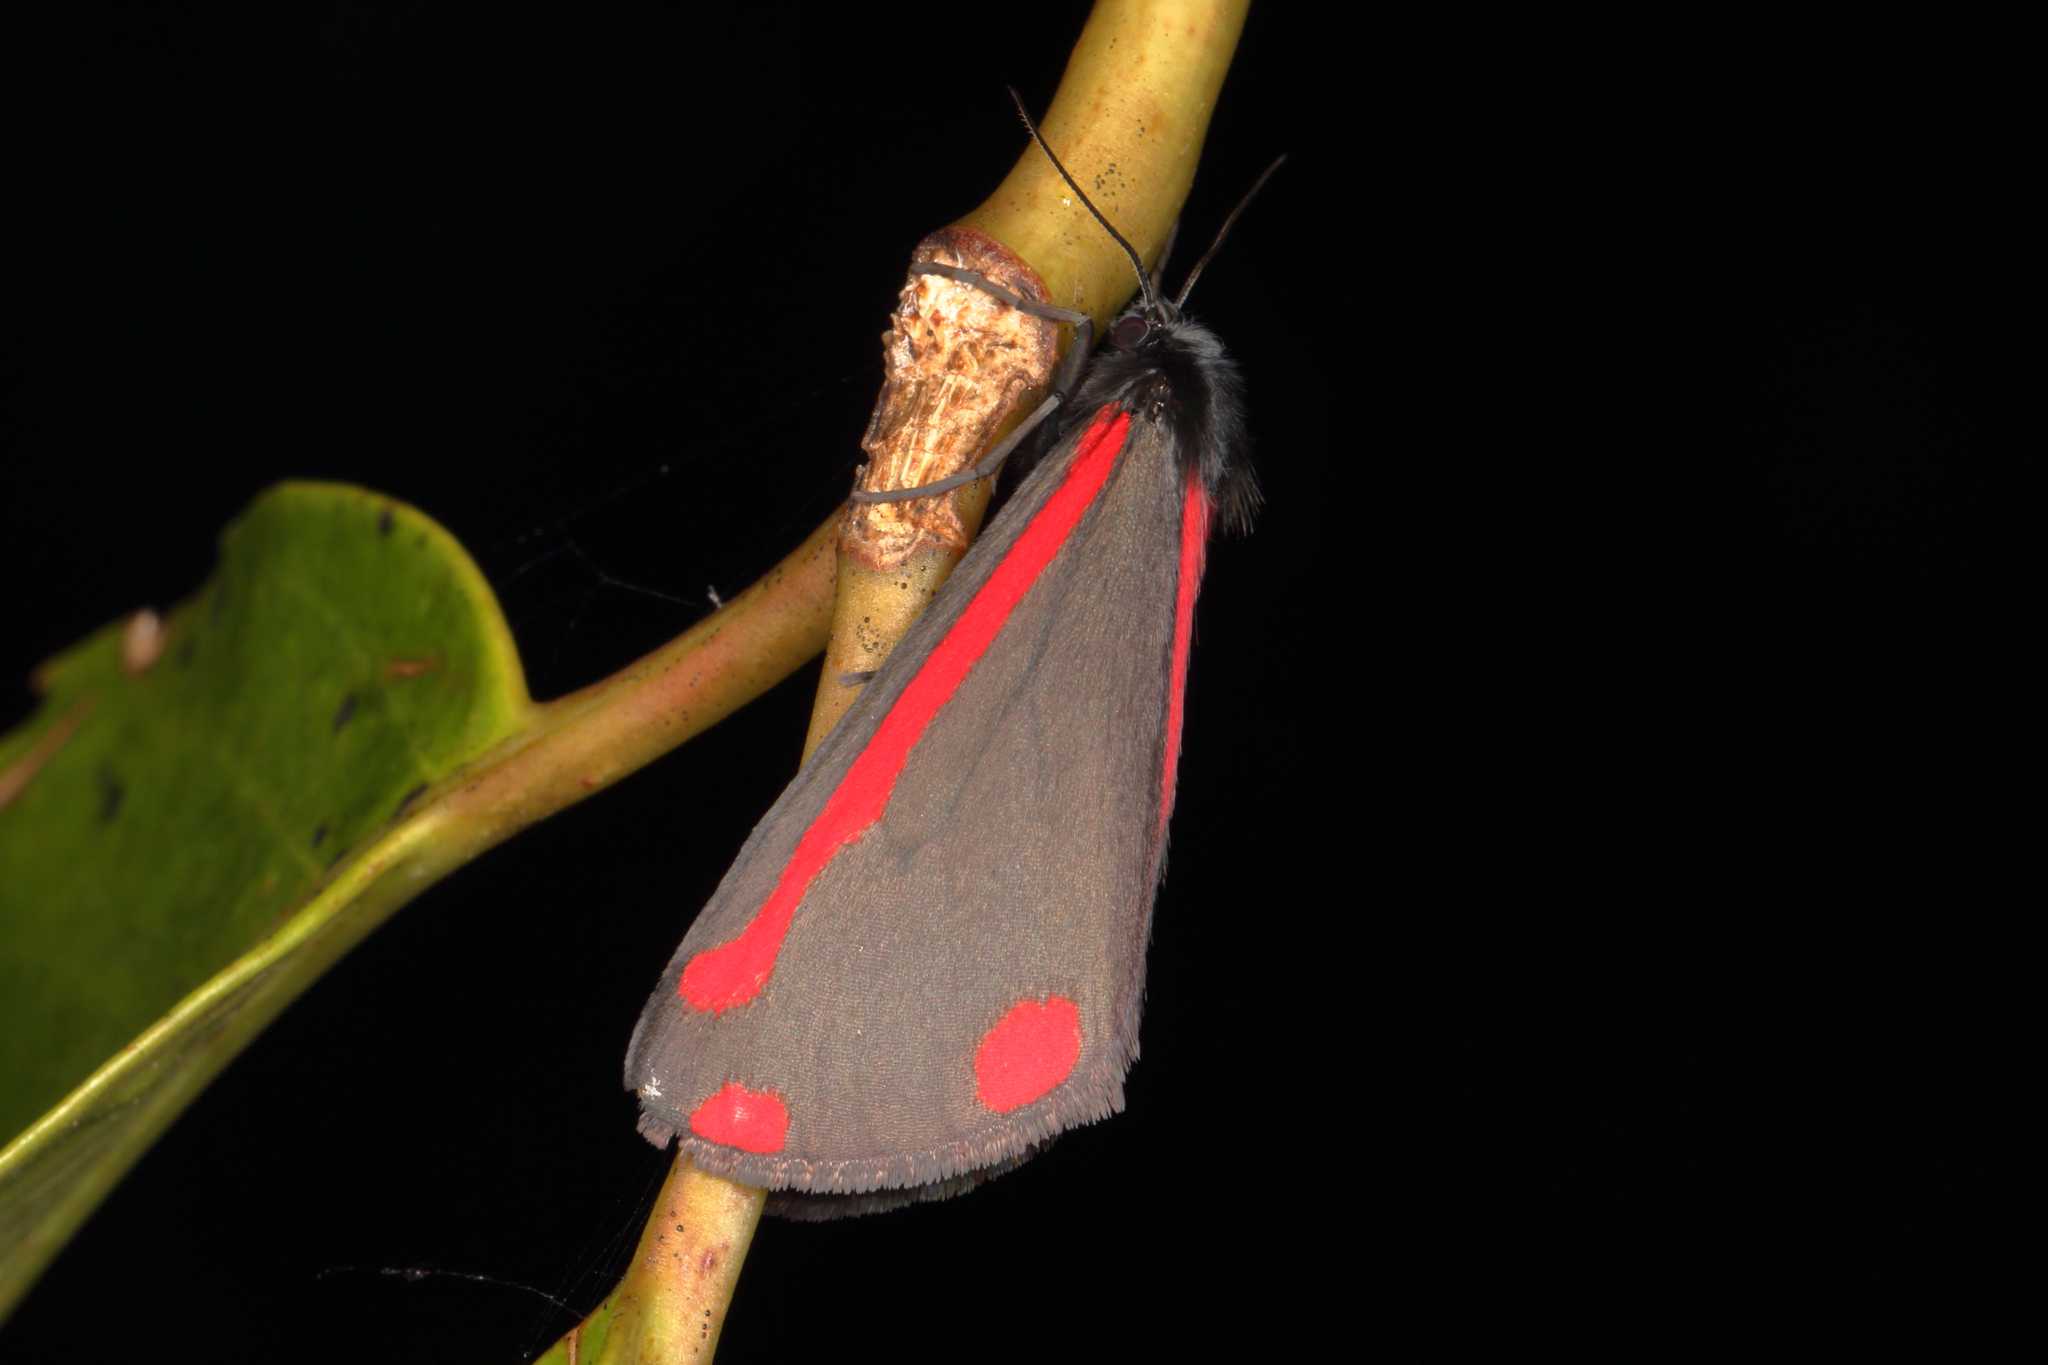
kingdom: Animalia
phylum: Arthropoda
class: Insecta
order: Lepidoptera
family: Erebidae
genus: Tyria
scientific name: Tyria jacobaeae
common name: Cinnabar
